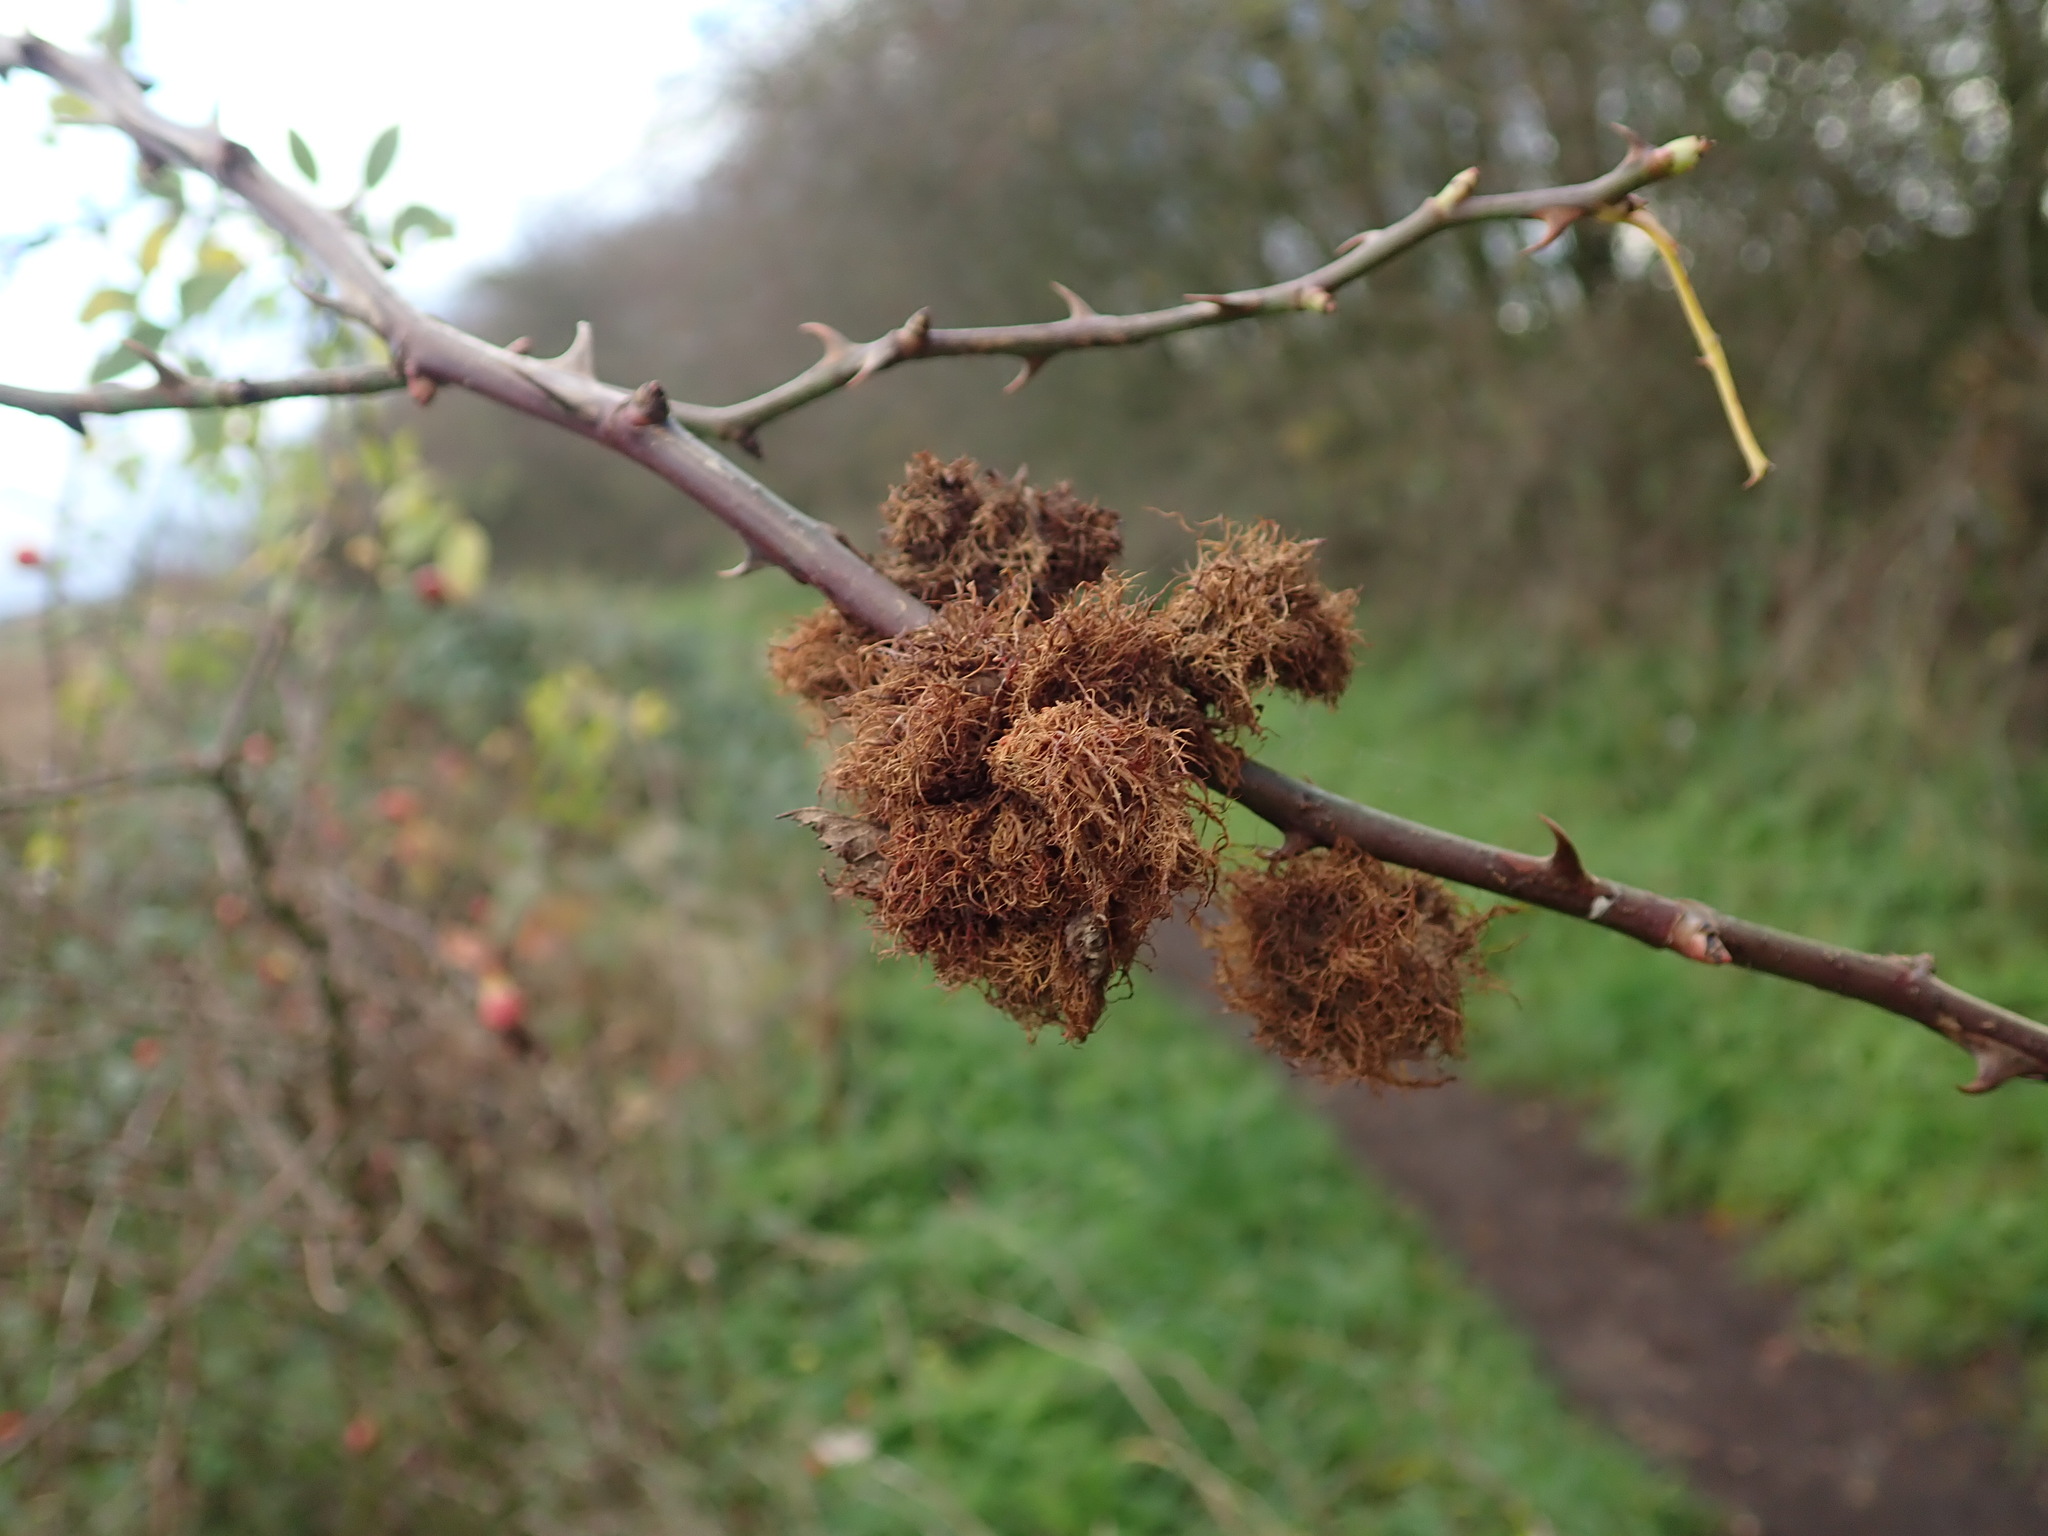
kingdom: Animalia
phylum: Arthropoda
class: Insecta
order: Hymenoptera
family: Cynipidae
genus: Diplolepis
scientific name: Diplolepis rosae
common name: Bedeguar gall
